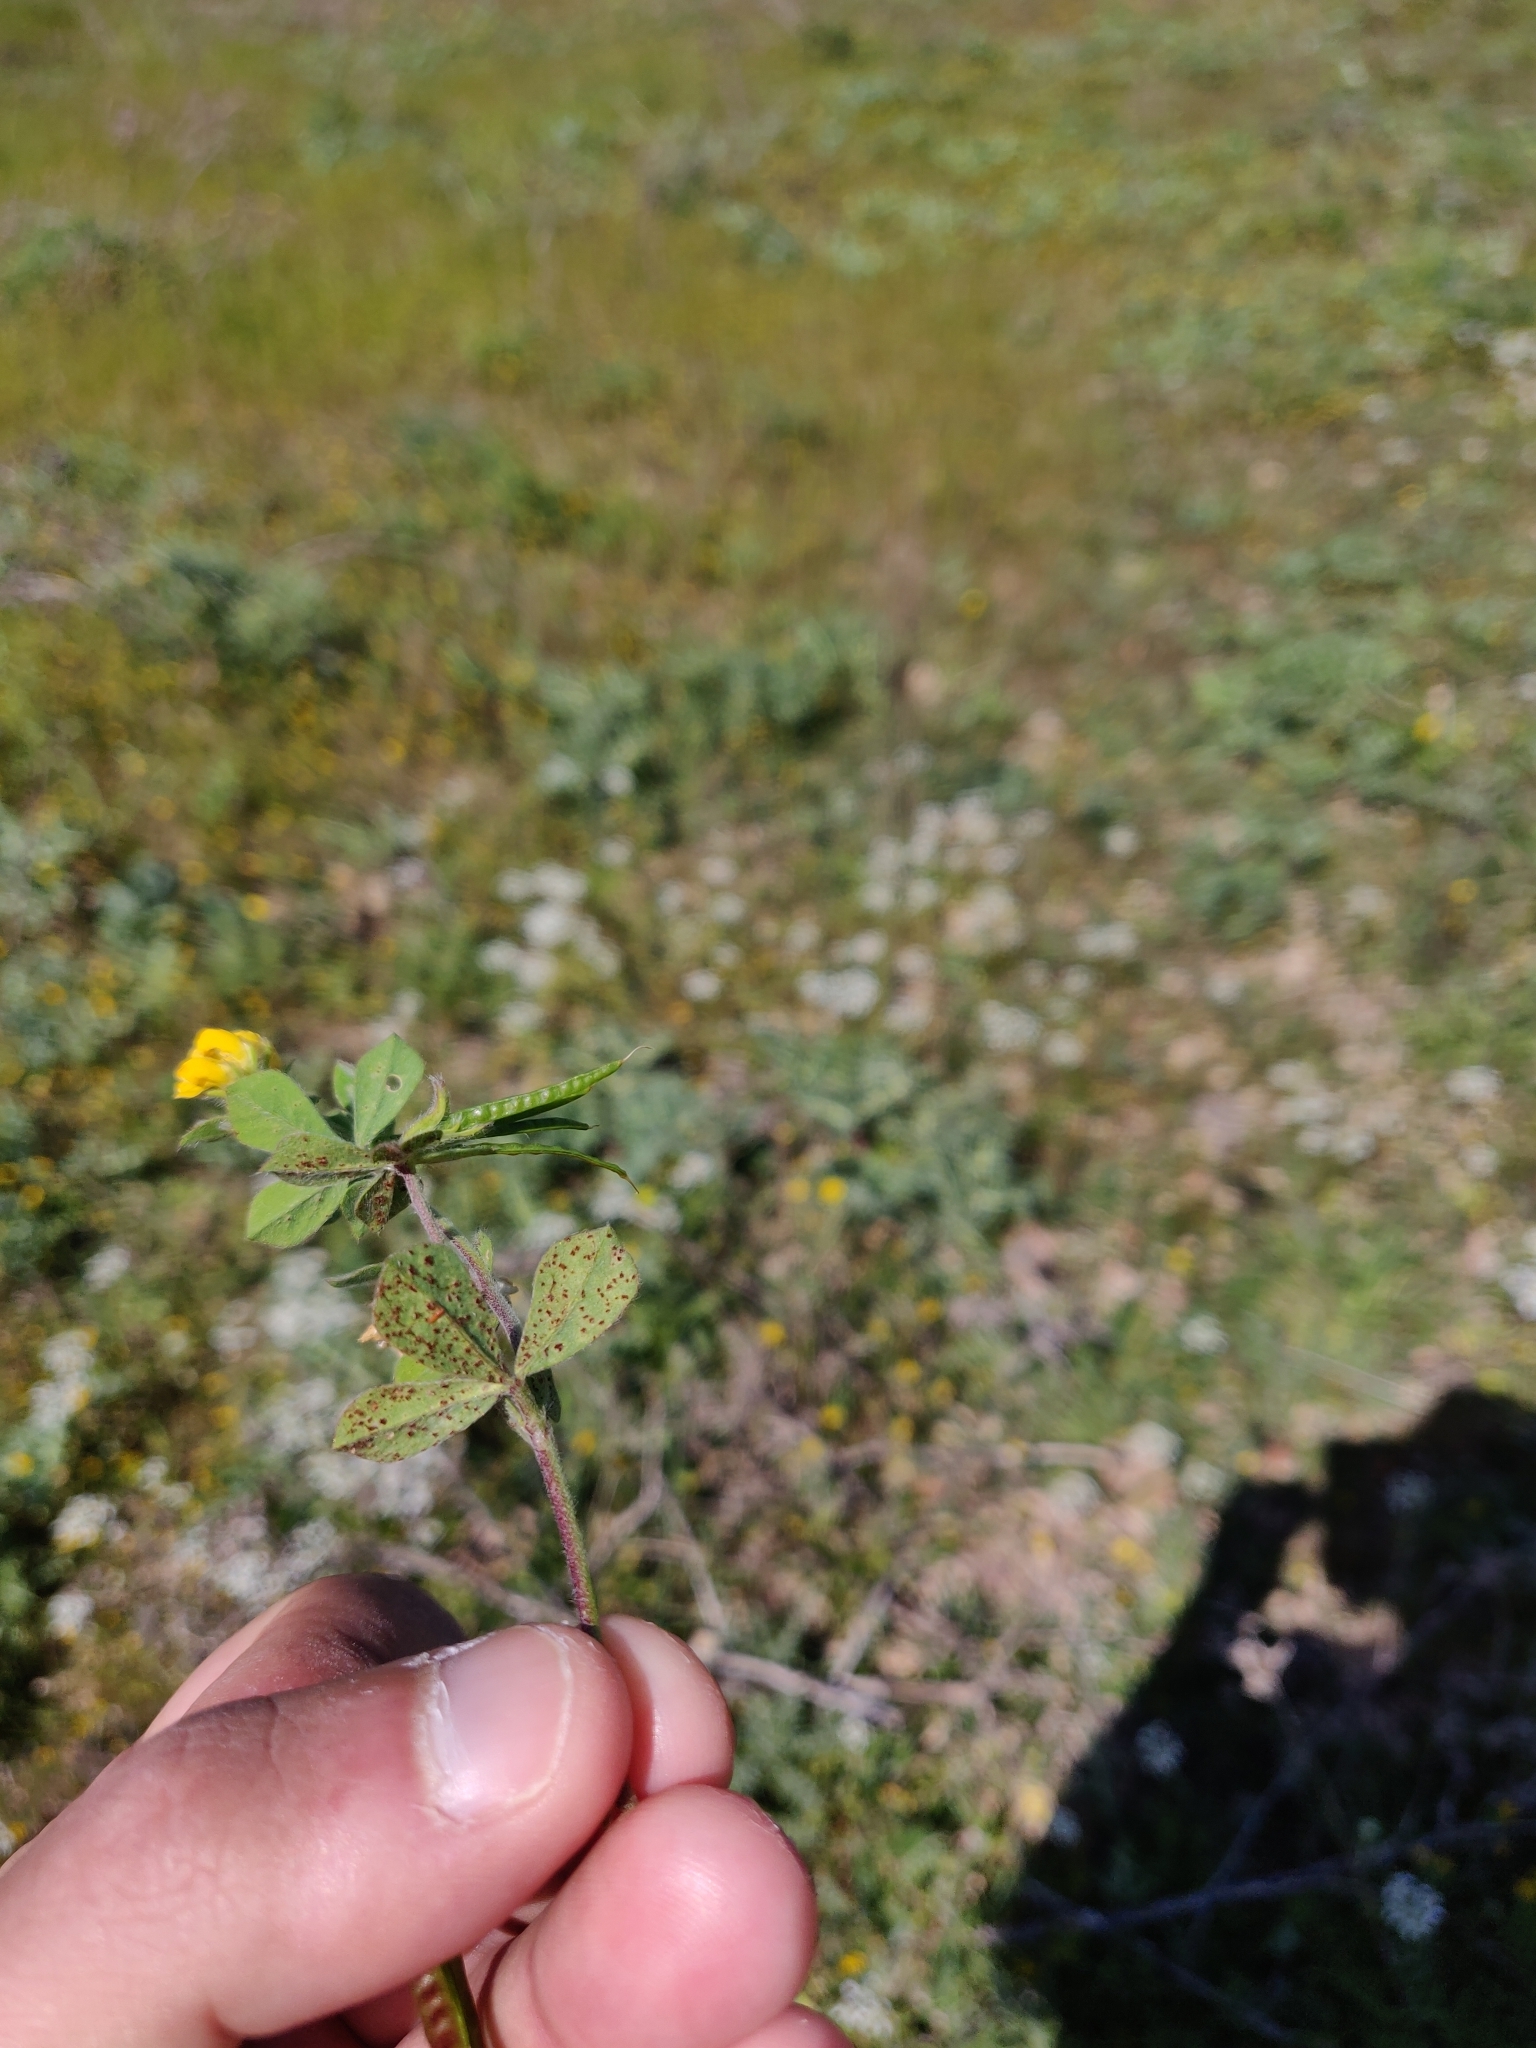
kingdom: Fungi
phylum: Basidiomycota
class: Pucciniomycetes
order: Pucciniales
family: Pucciniaceae
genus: Uromyces
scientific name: Uromyces striatus
